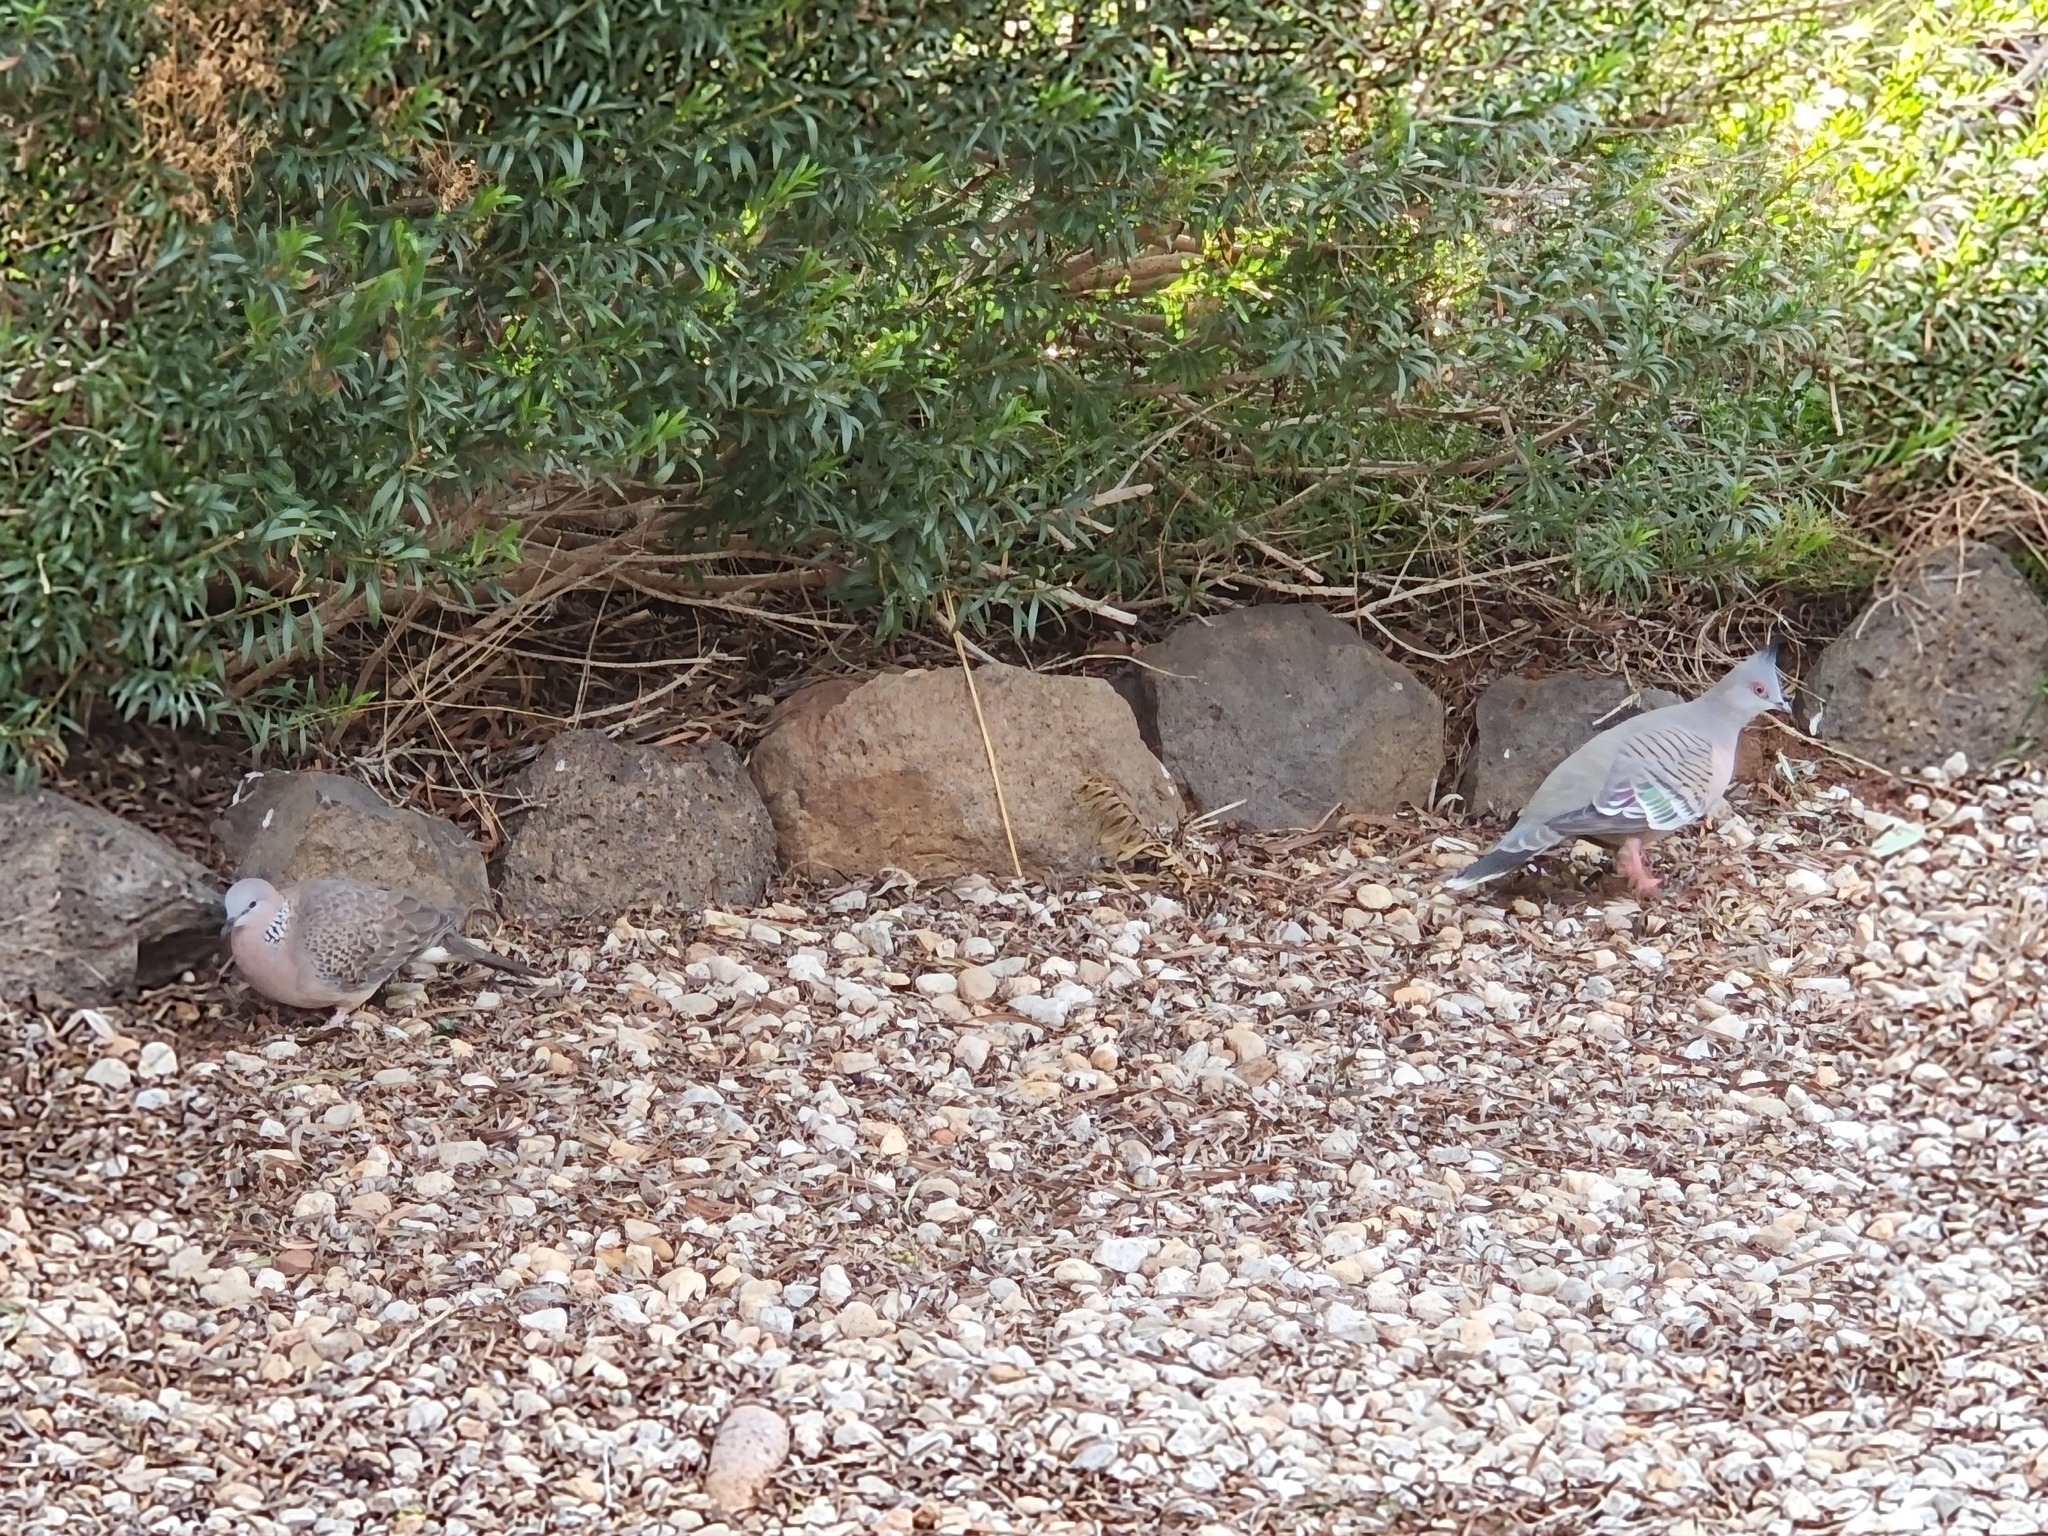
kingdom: Animalia
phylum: Chordata
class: Aves
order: Columbiformes
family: Columbidae
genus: Ocyphaps
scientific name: Ocyphaps lophotes
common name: Crested pigeon
